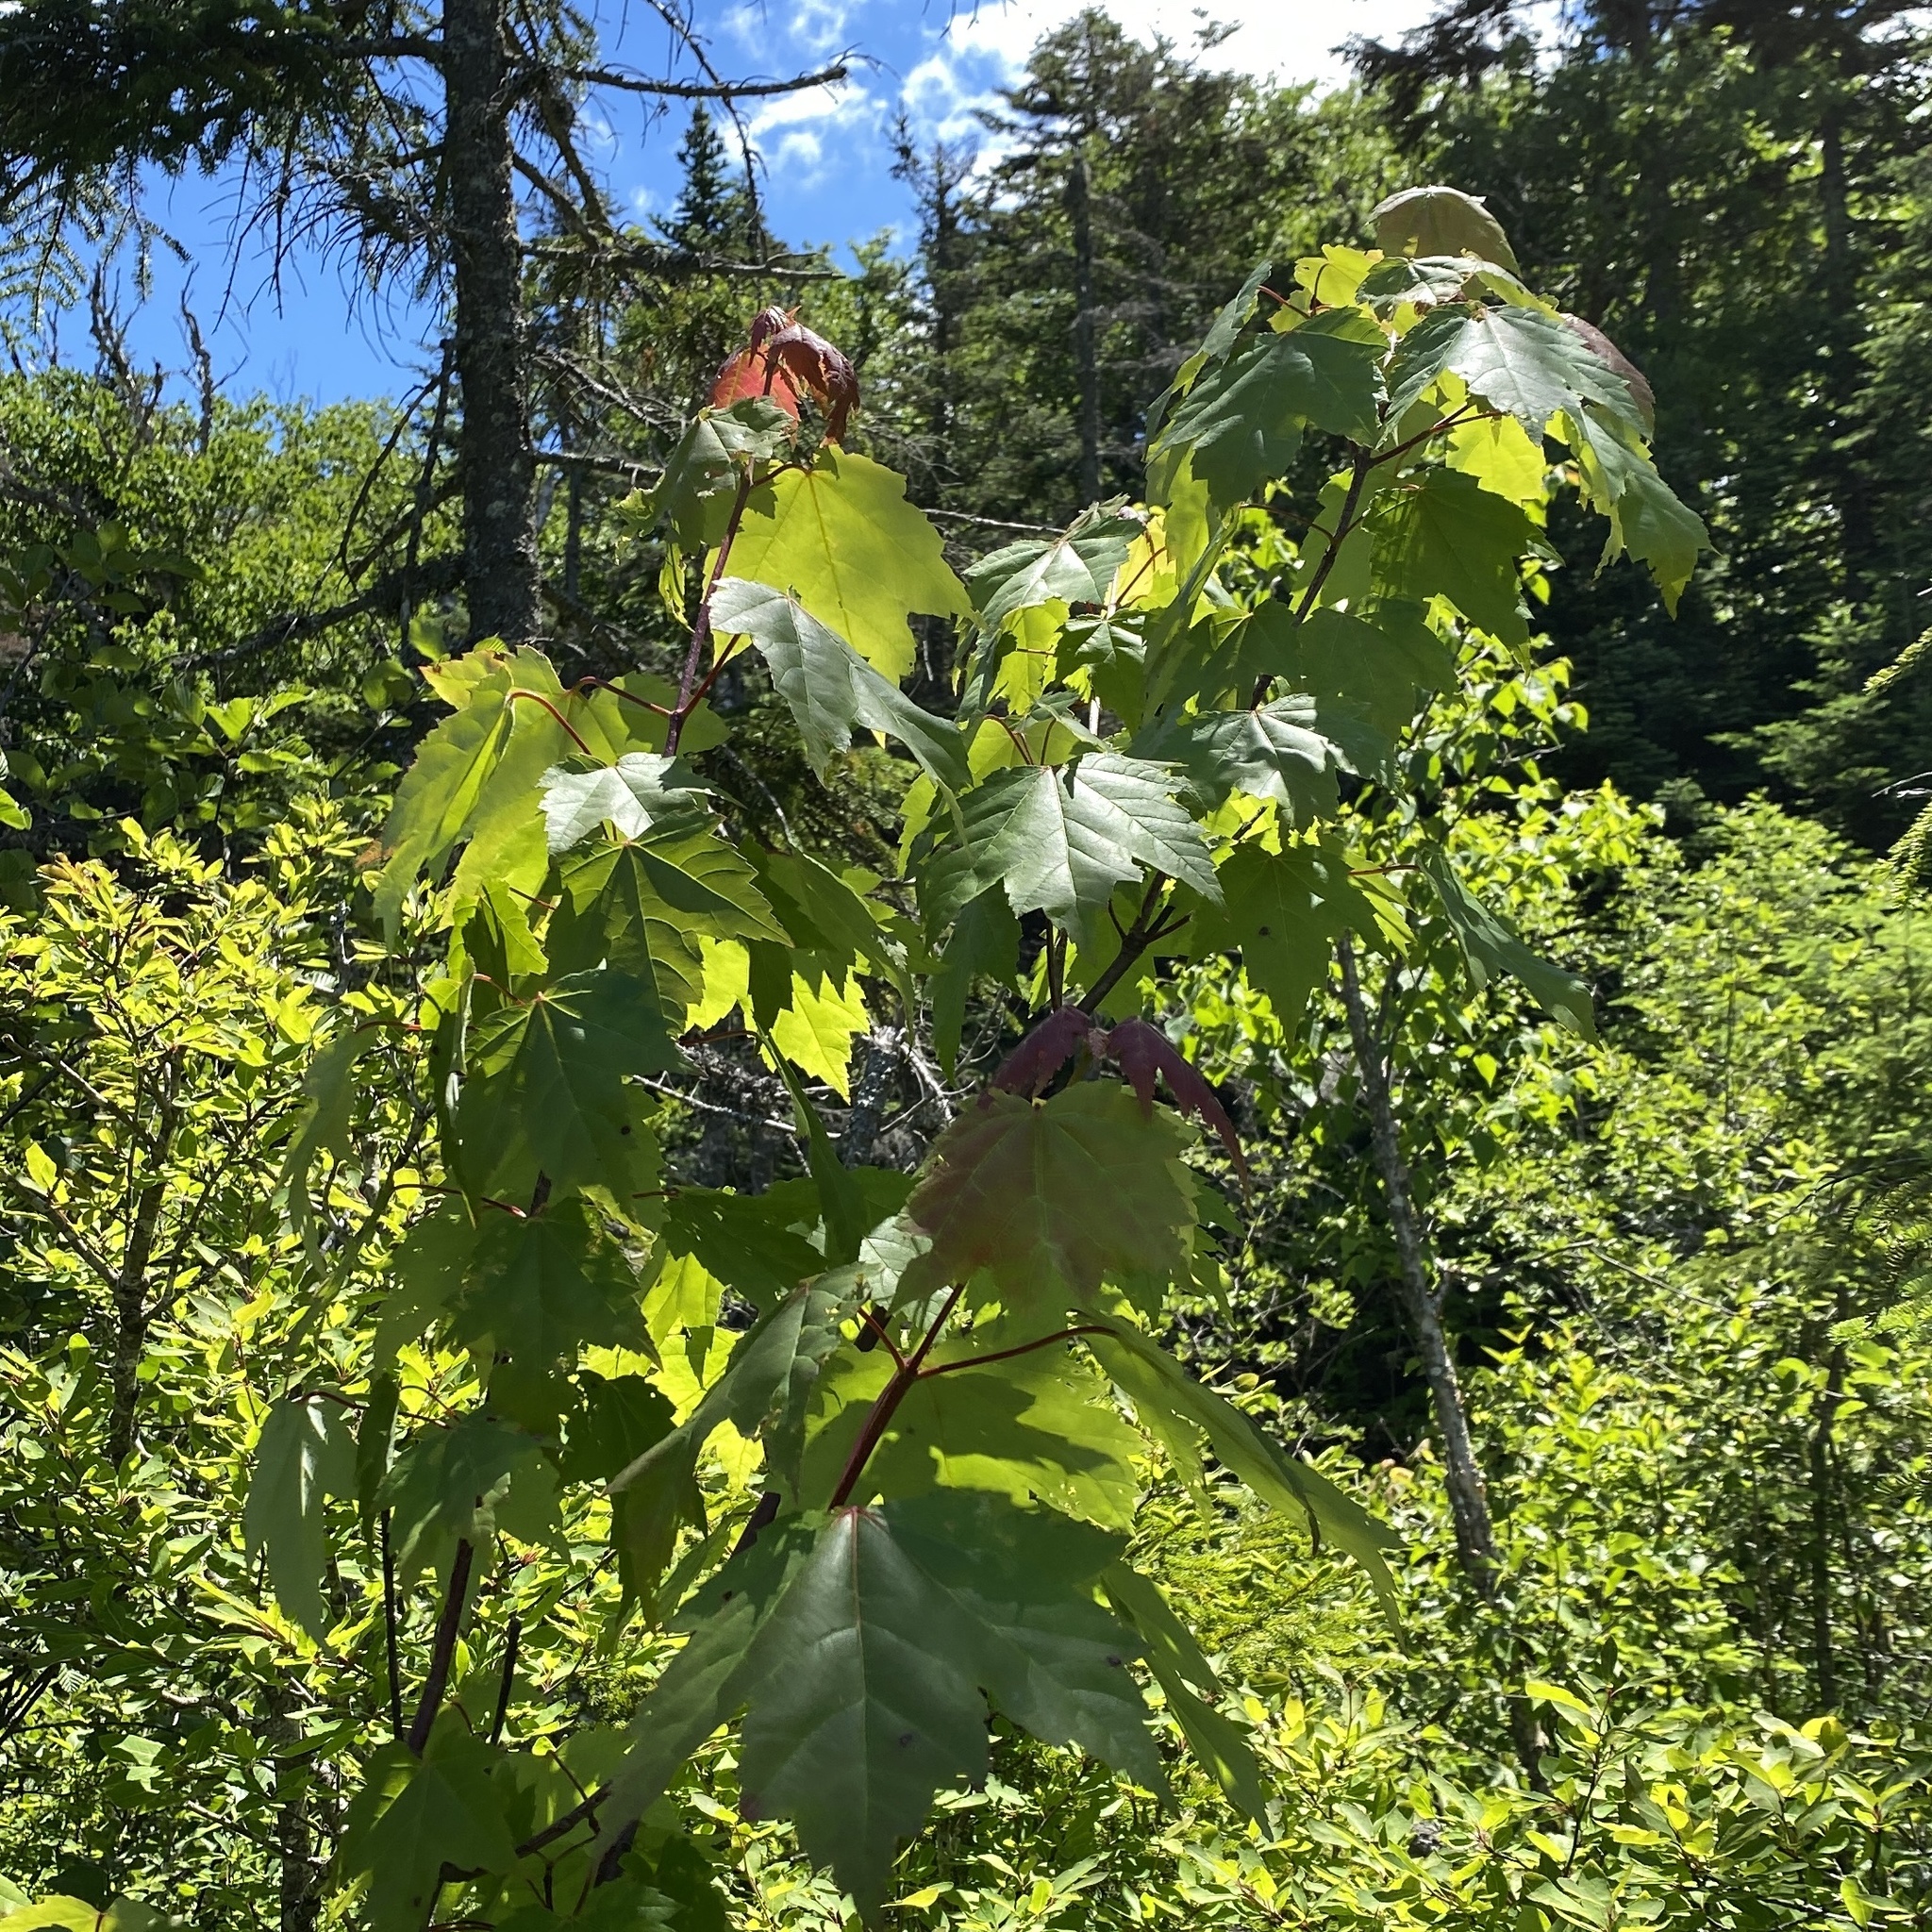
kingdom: Plantae
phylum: Tracheophyta
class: Magnoliopsida
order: Sapindales
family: Sapindaceae
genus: Acer
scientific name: Acer rubrum
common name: Red maple
